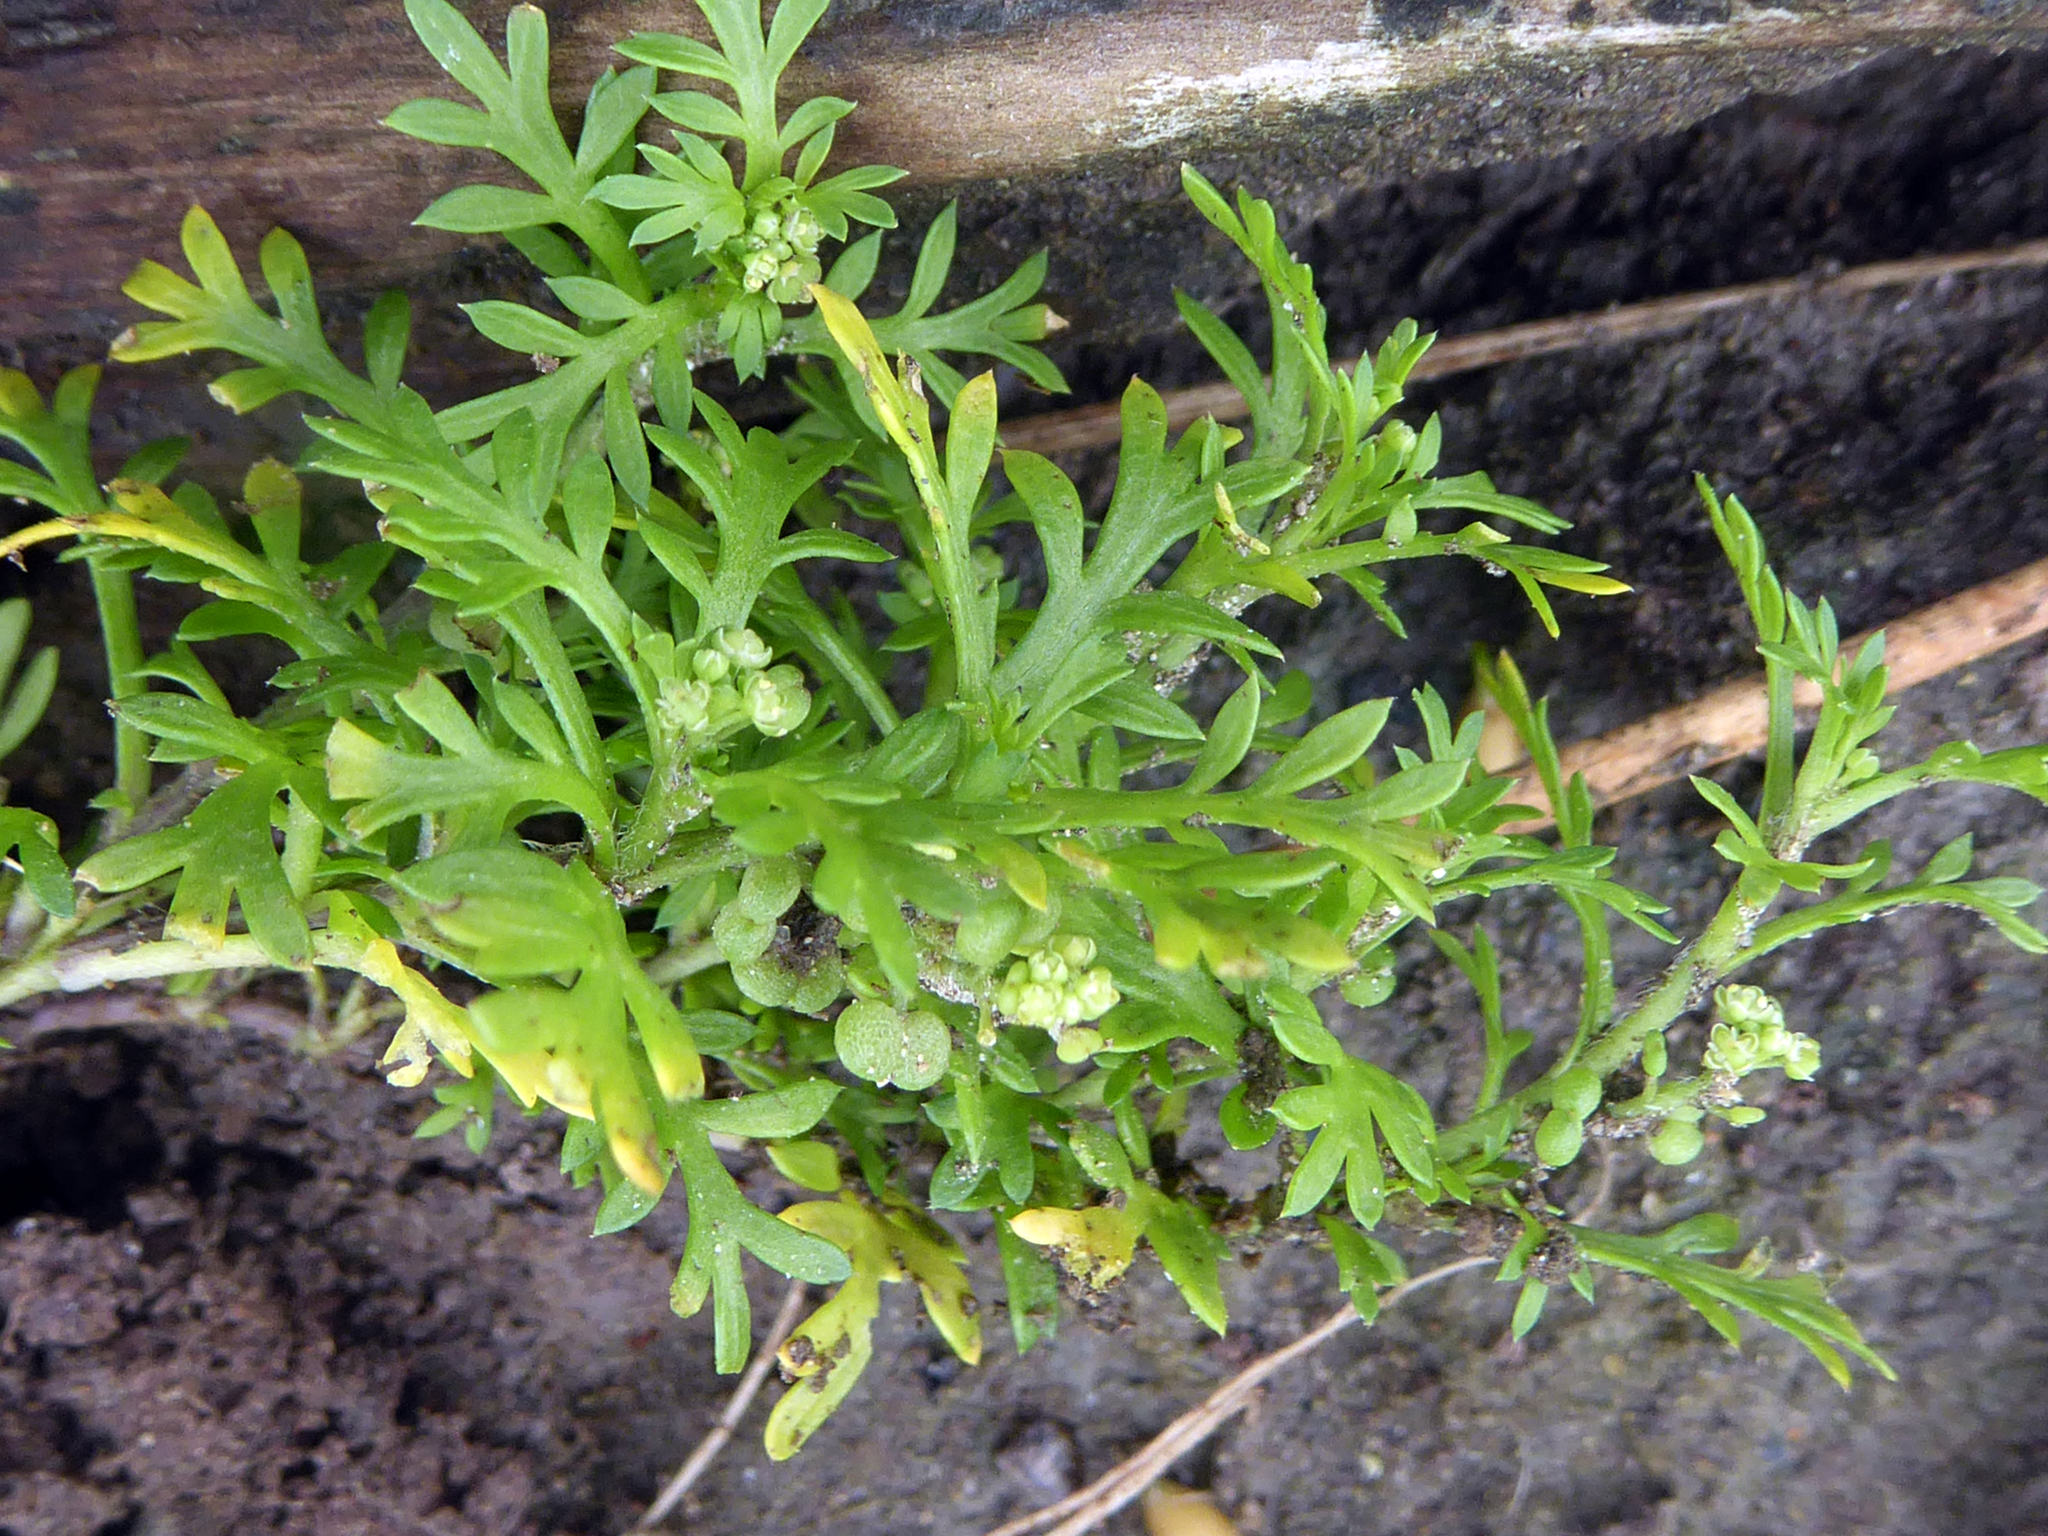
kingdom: Plantae
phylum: Tracheophyta
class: Magnoliopsida
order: Brassicales
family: Brassicaceae
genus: Lepidium
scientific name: Lepidium didymum
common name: Lesser swinecress
